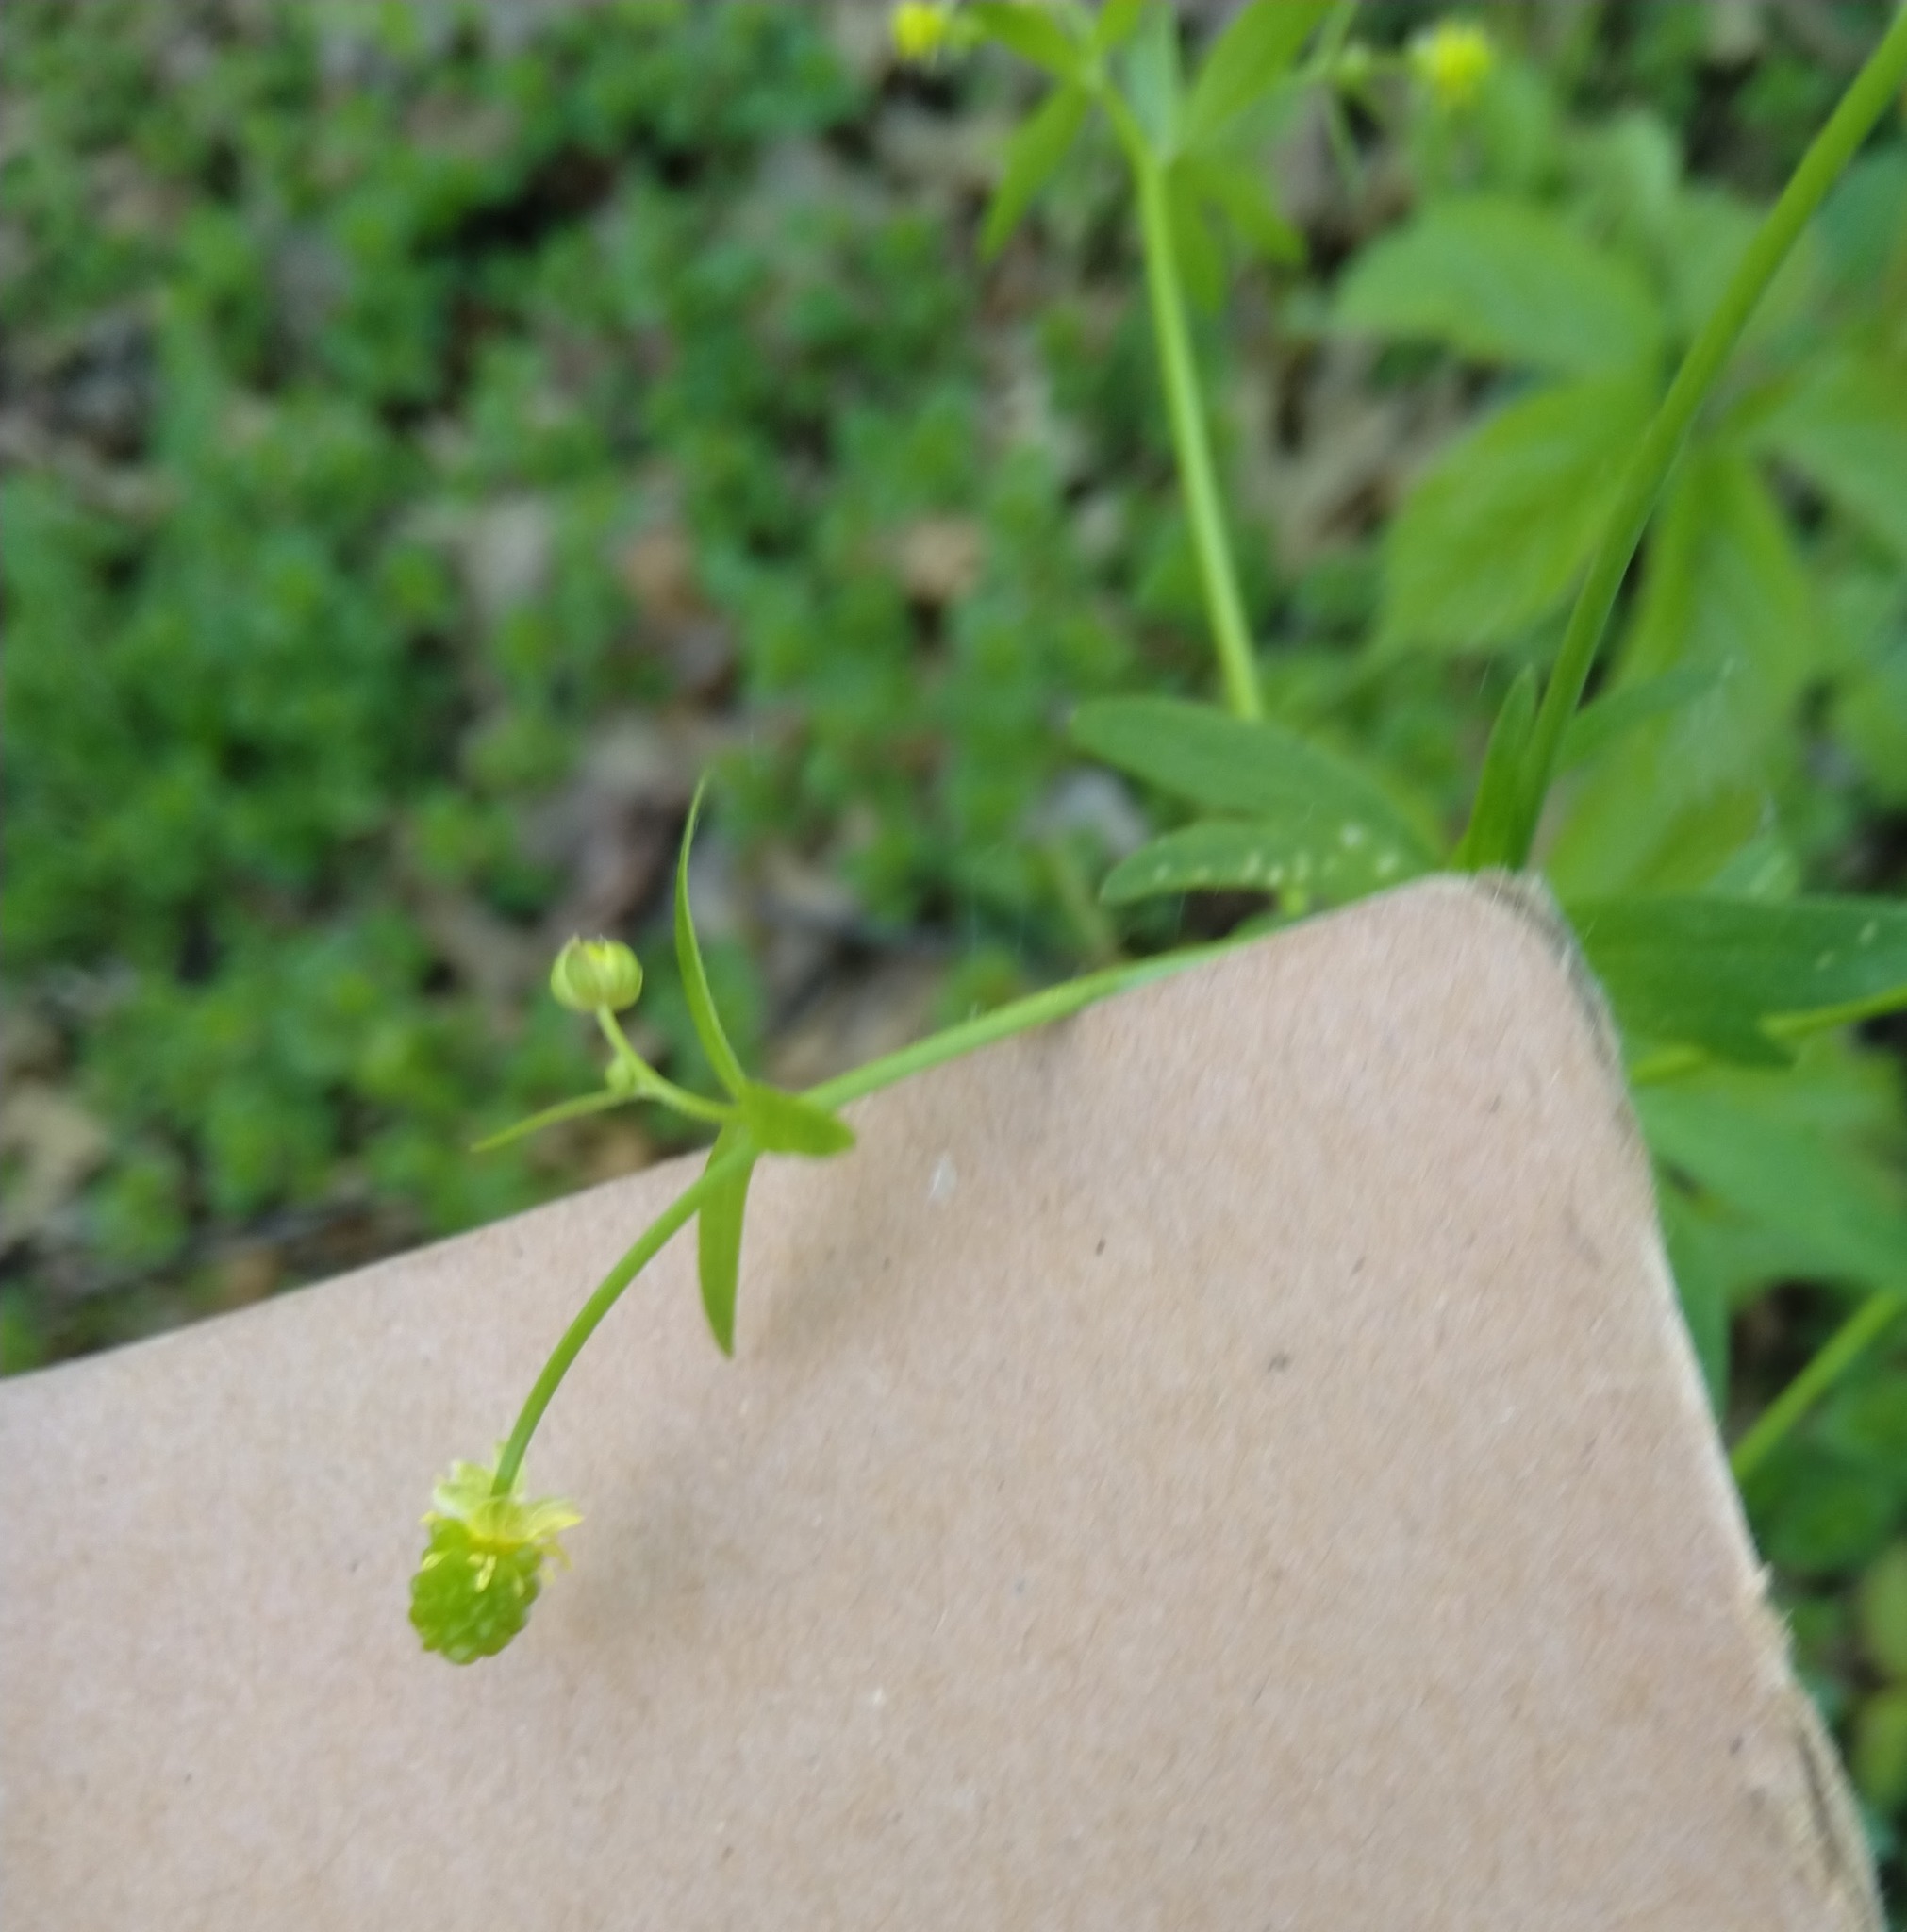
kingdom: Plantae
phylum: Tracheophyta
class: Magnoliopsida
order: Ranunculales
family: Ranunculaceae
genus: Ranunculus
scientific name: Ranunculus abortivus
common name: Early wood buttercup
